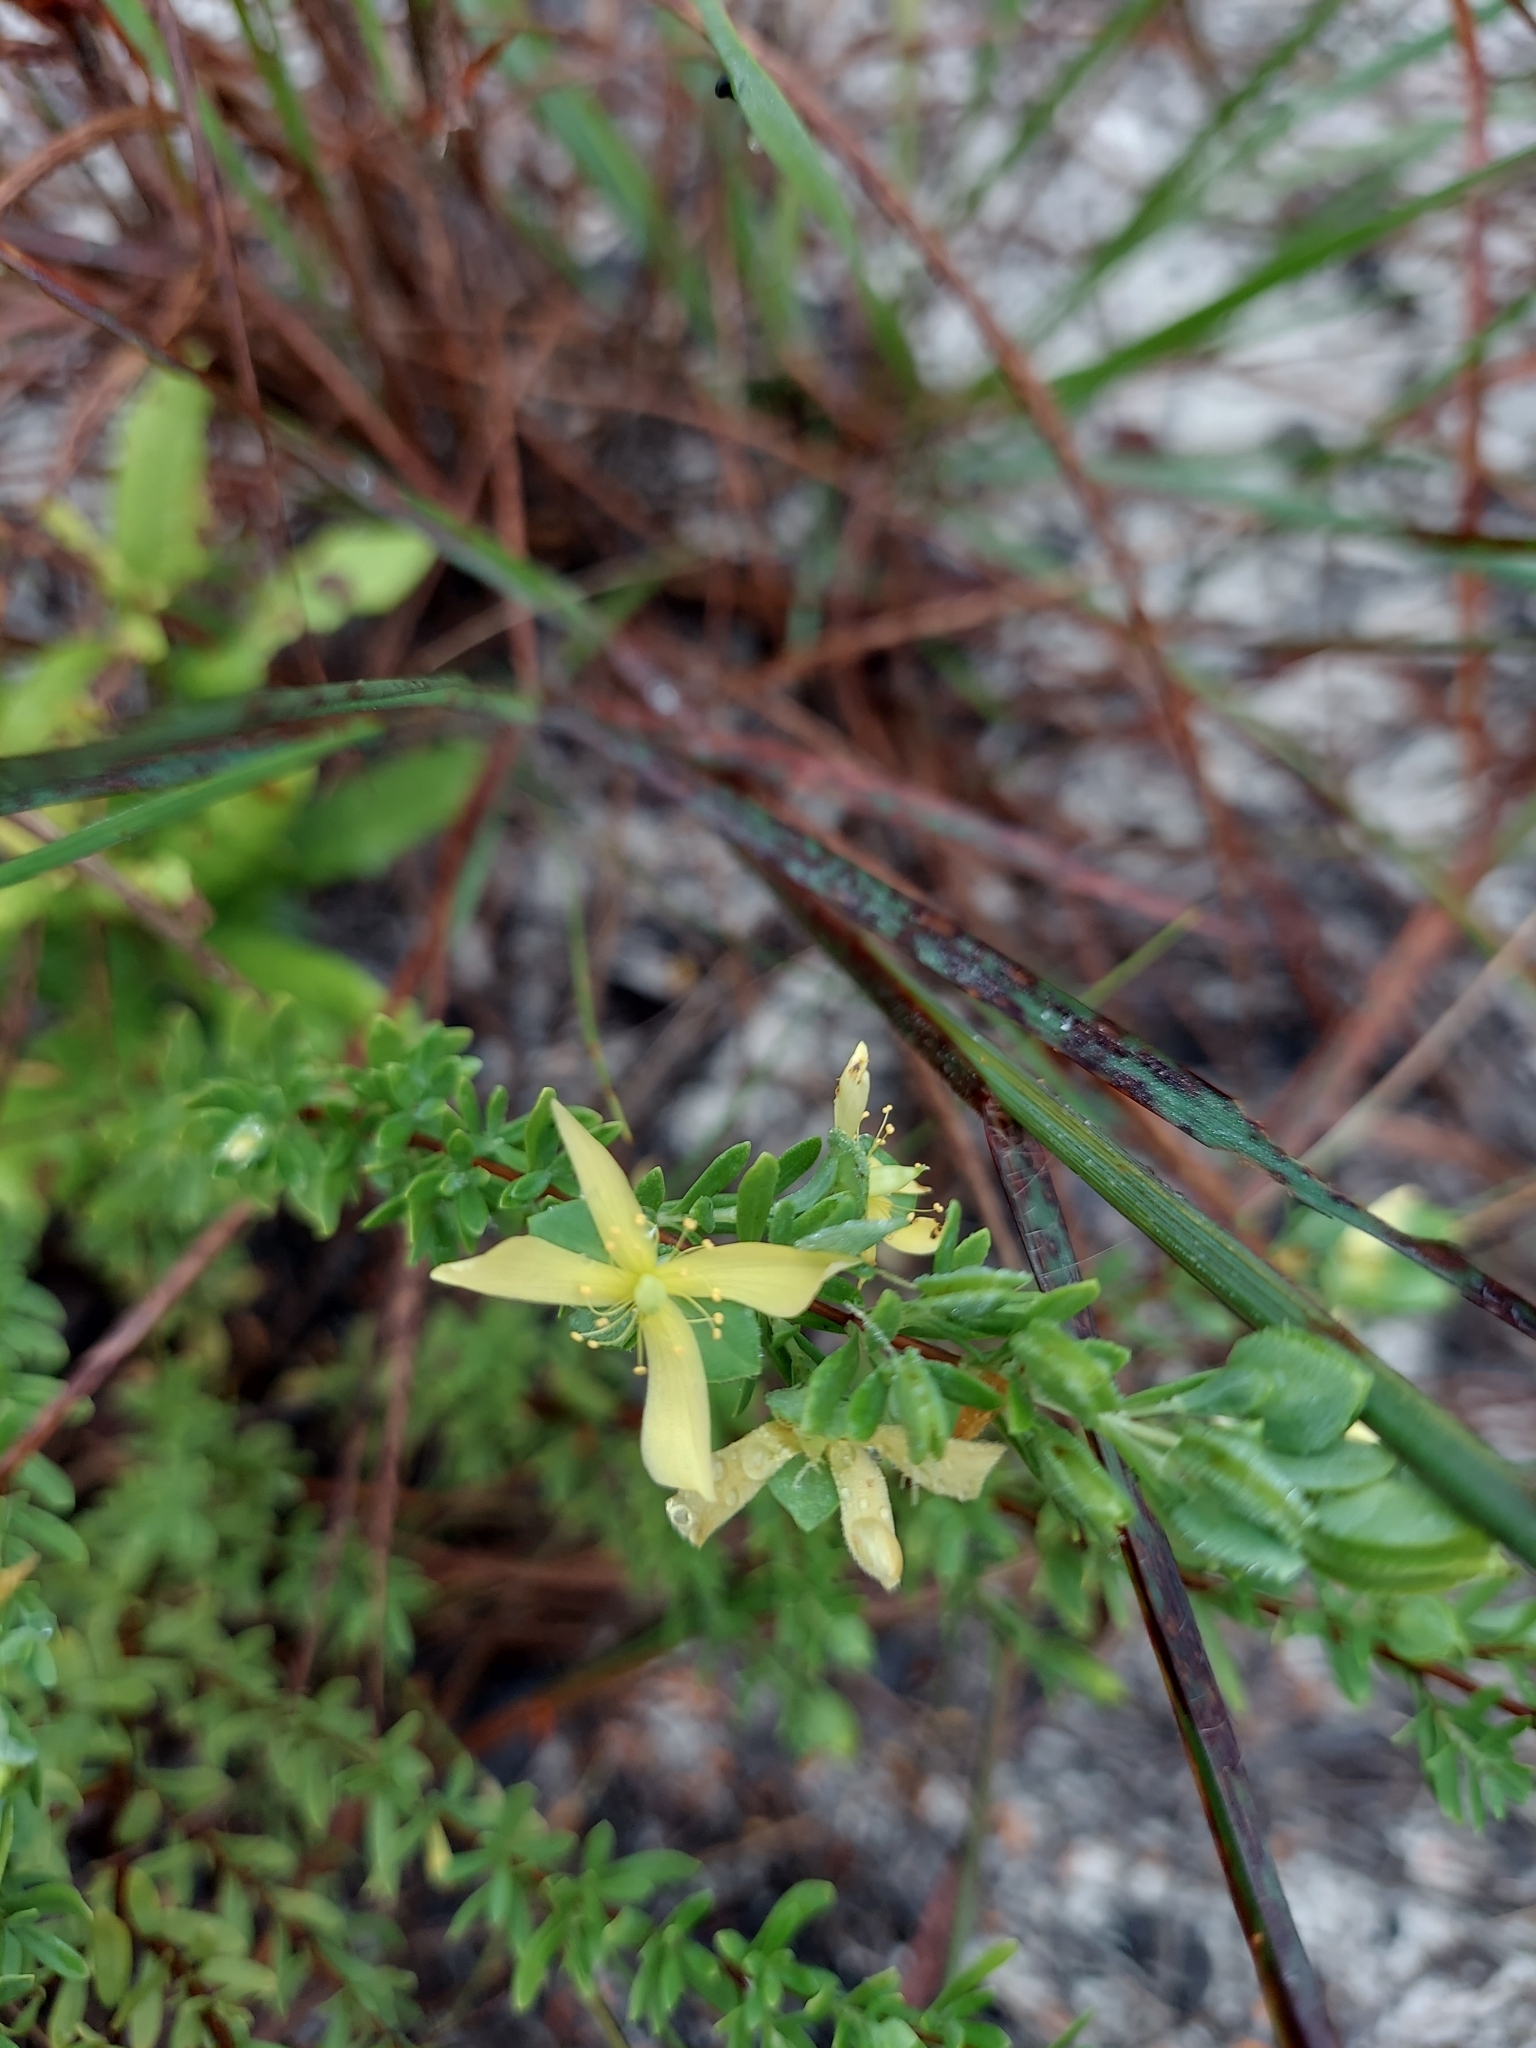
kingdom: Plantae
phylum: Tracheophyta
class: Magnoliopsida
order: Malpighiales
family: Hypericaceae
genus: Hypericum
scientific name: Hypericum hypericoides
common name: St. andrew's cross
